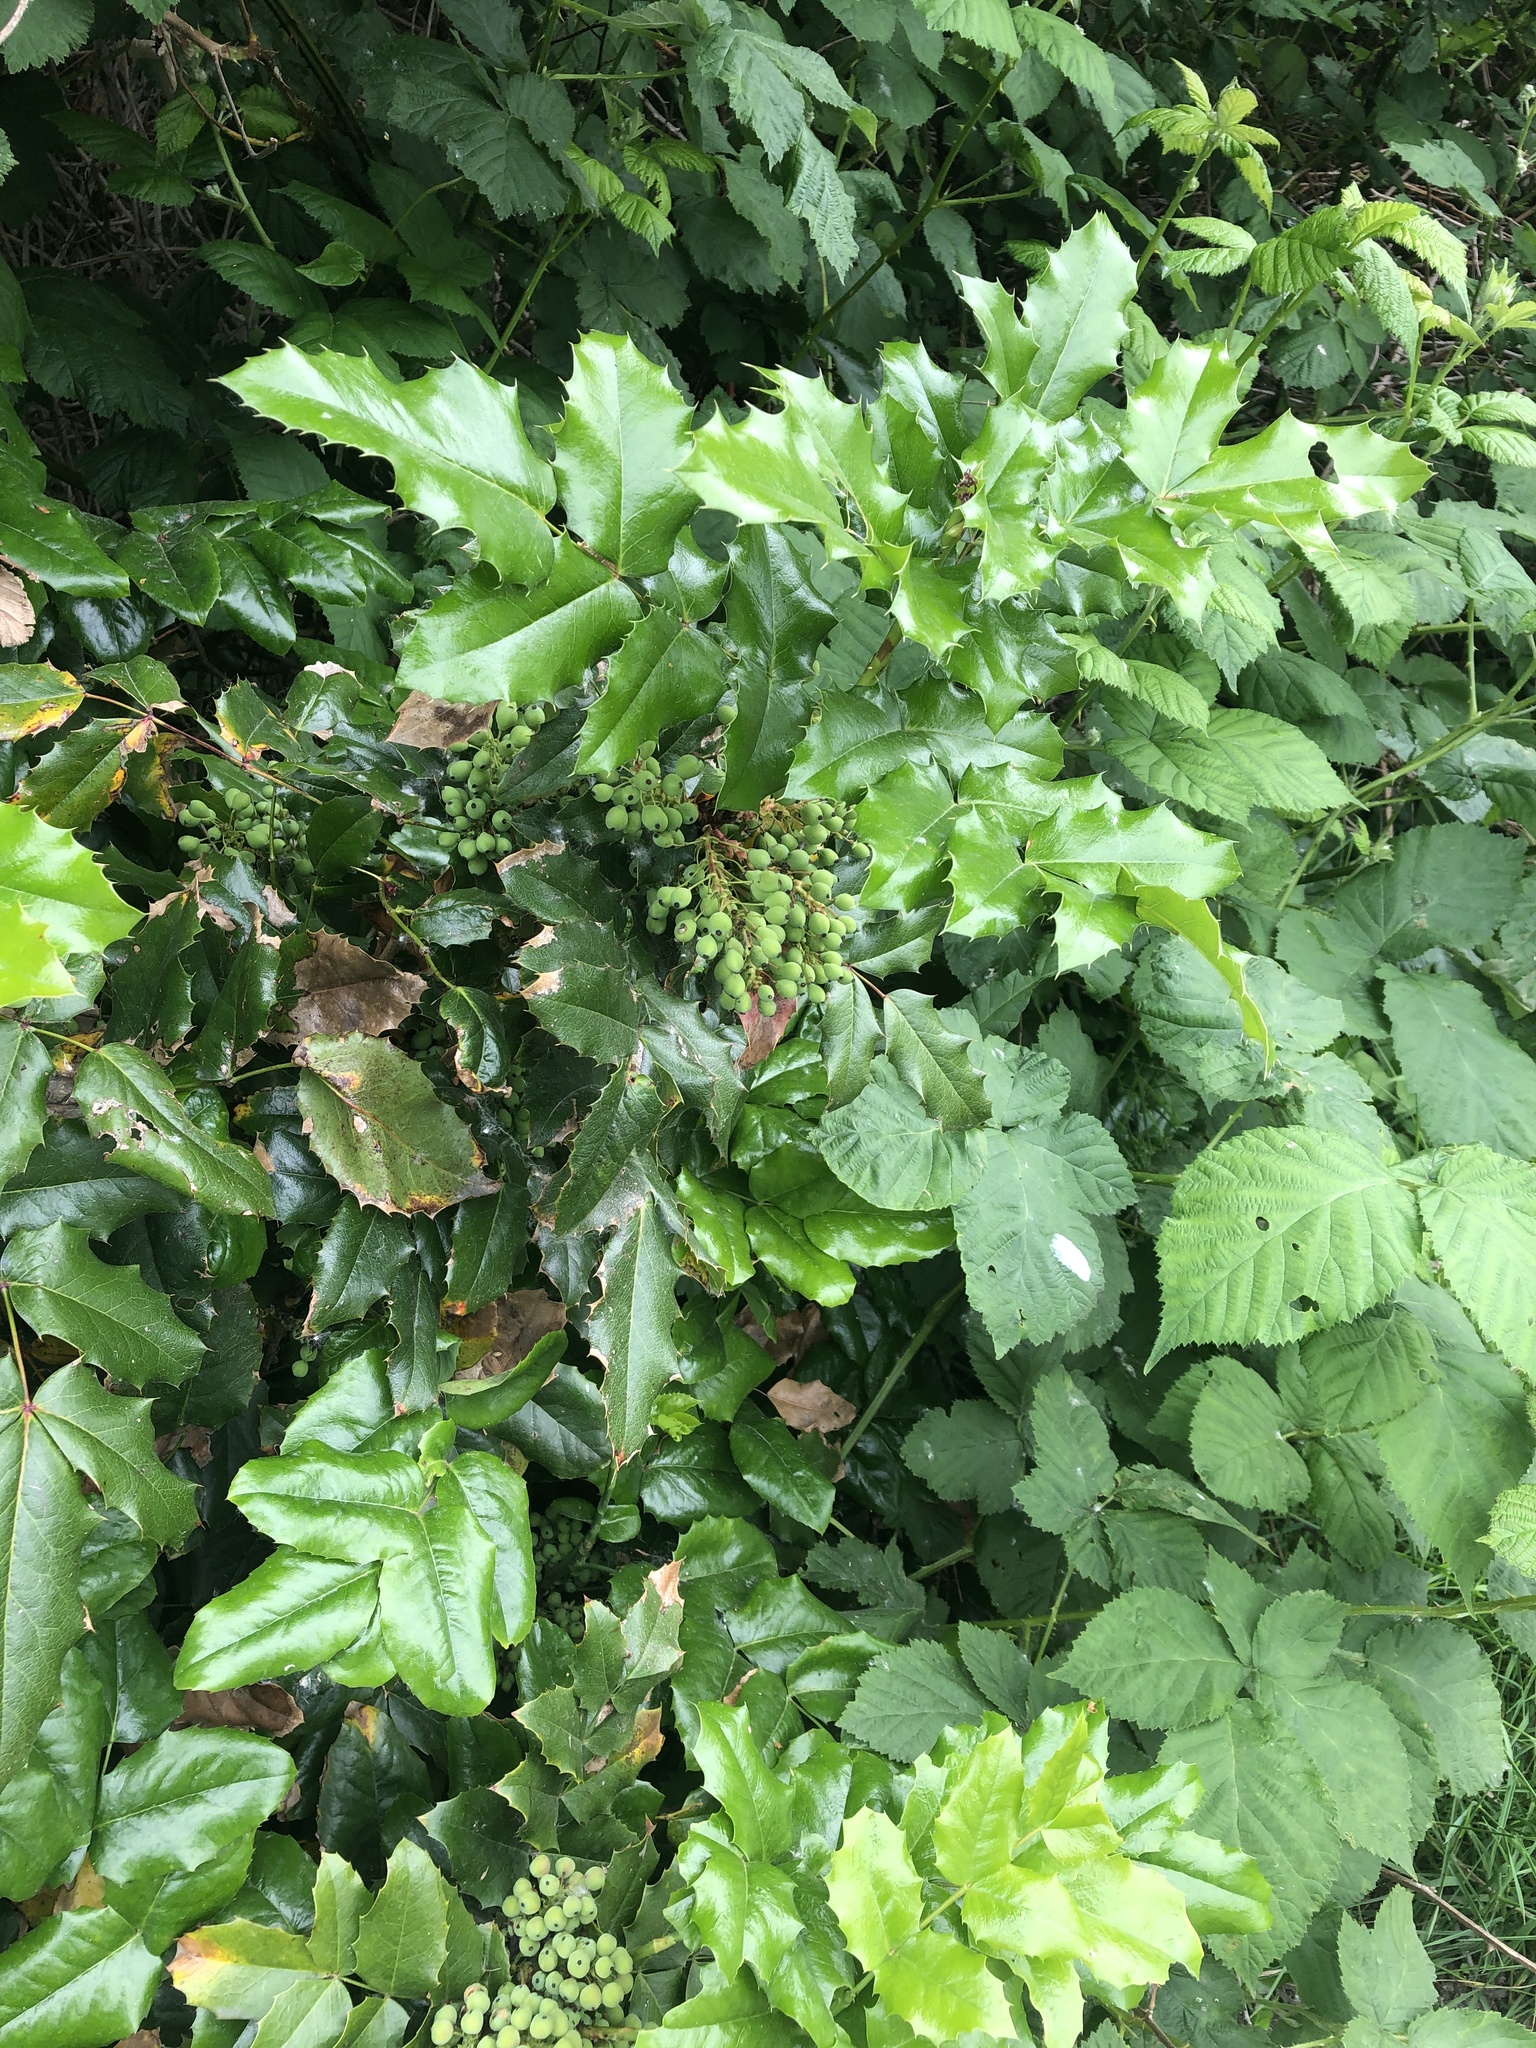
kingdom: Plantae
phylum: Tracheophyta
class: Magnoliopsida
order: Ranunculales
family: Berberidaceae
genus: Mahonia
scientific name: Mahonia aquifolium
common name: Oregon-grape
